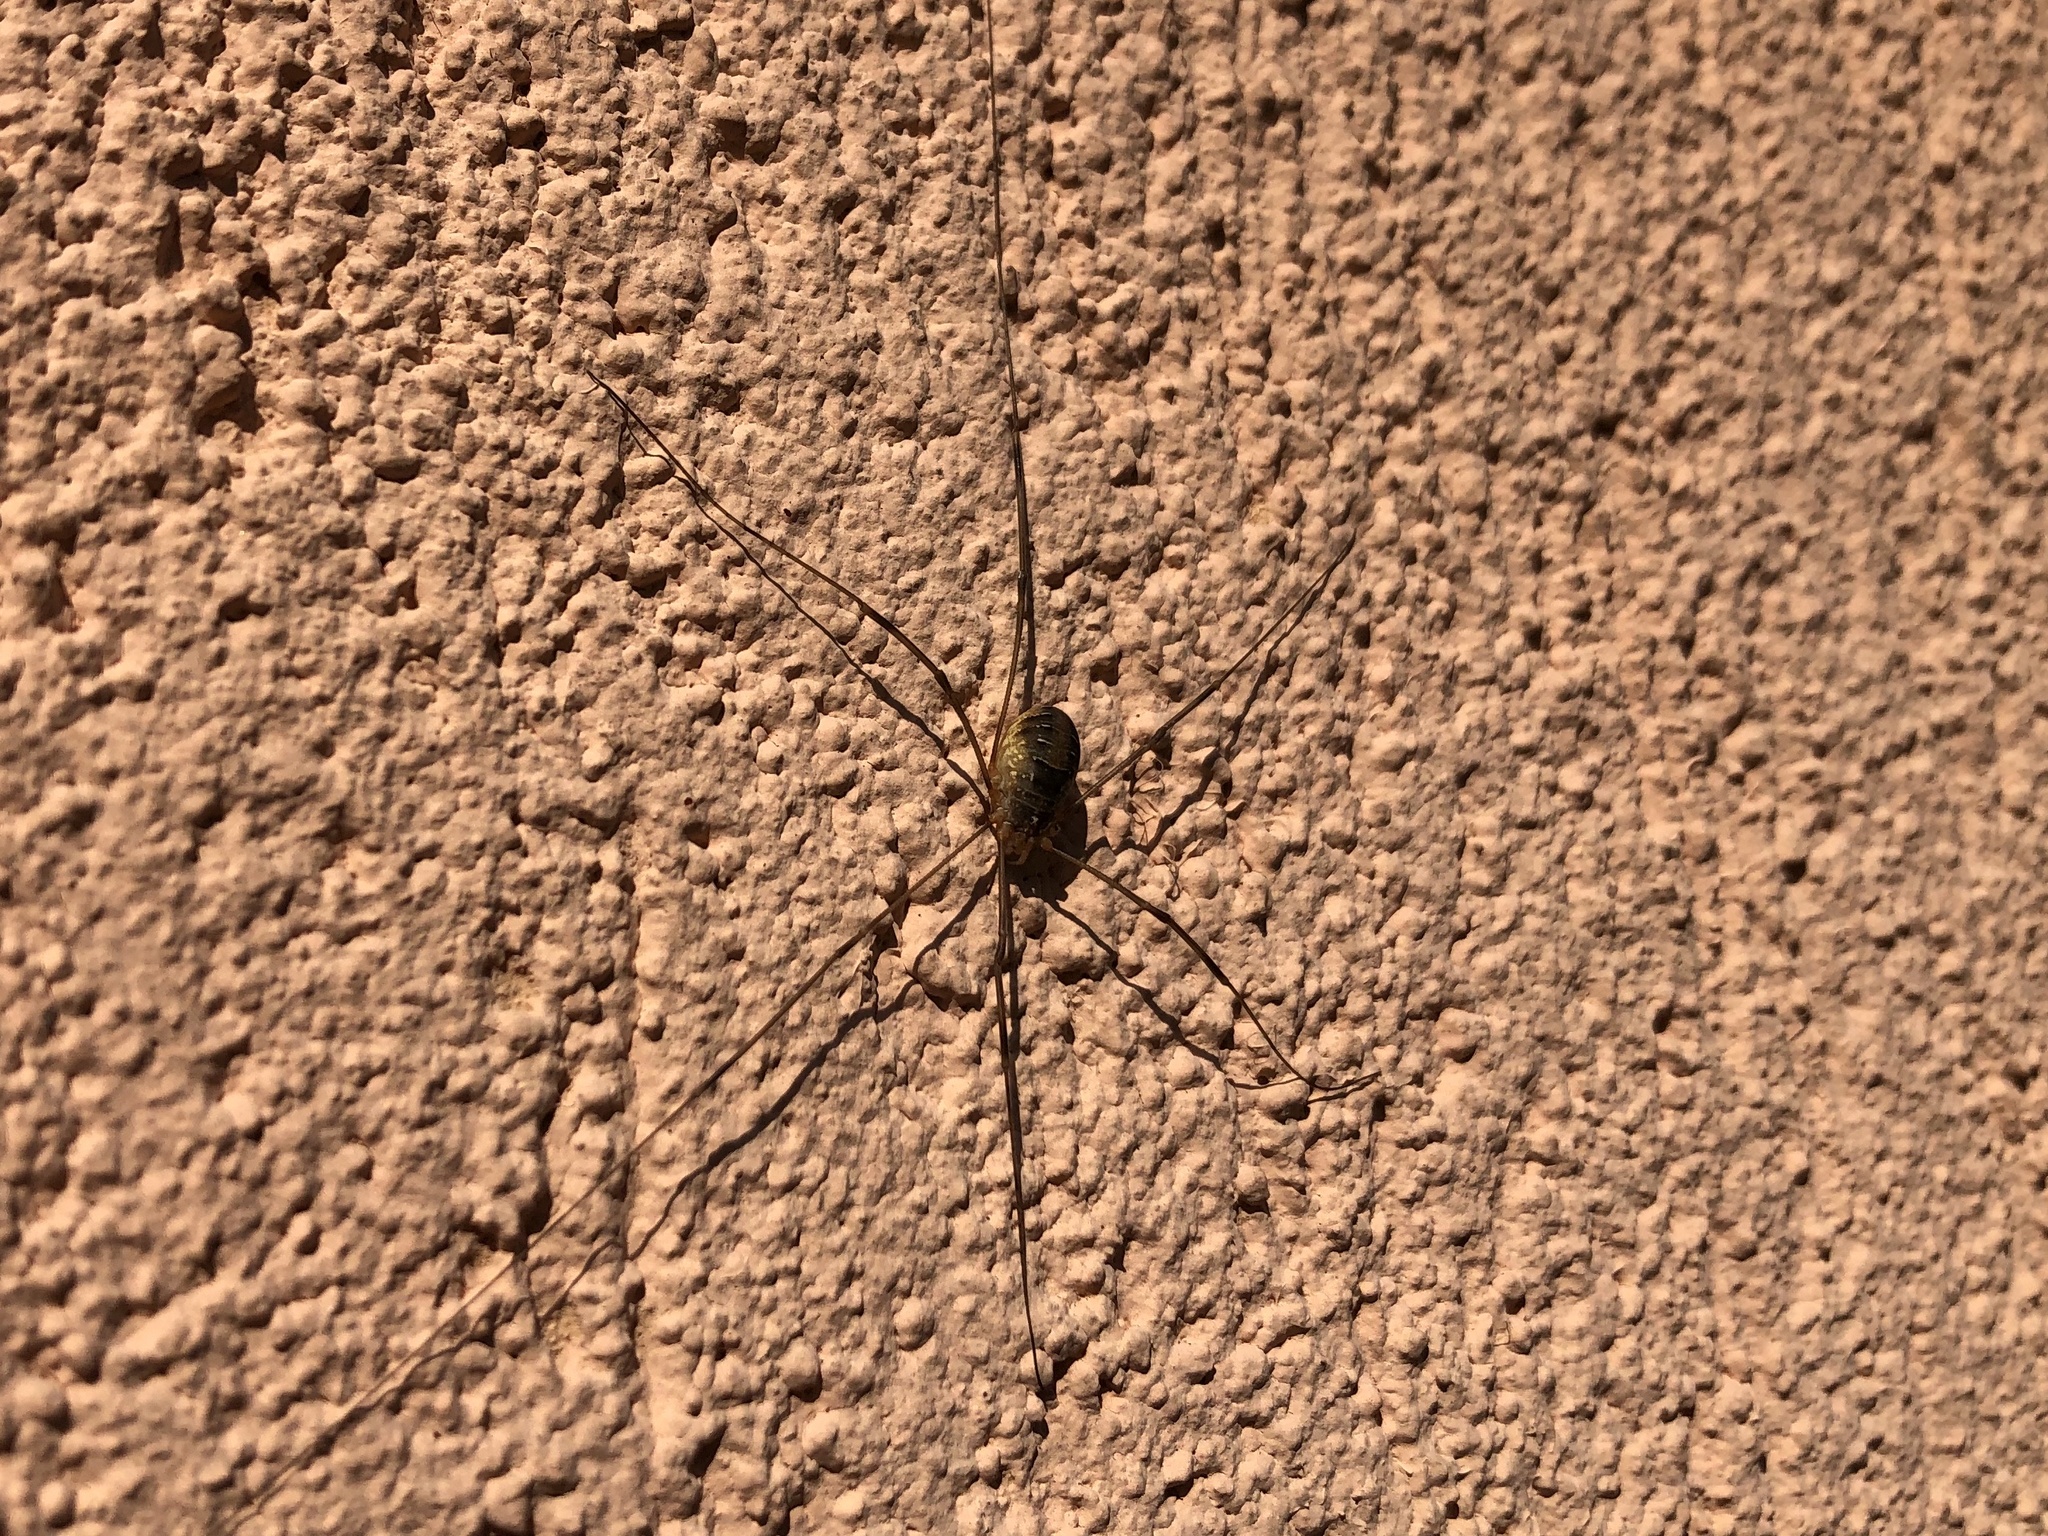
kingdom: Animalia
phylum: Arthropoda
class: Arachnida
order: Opiliones
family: Phalangiidae
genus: Opilio
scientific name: Opilio canestrinii
